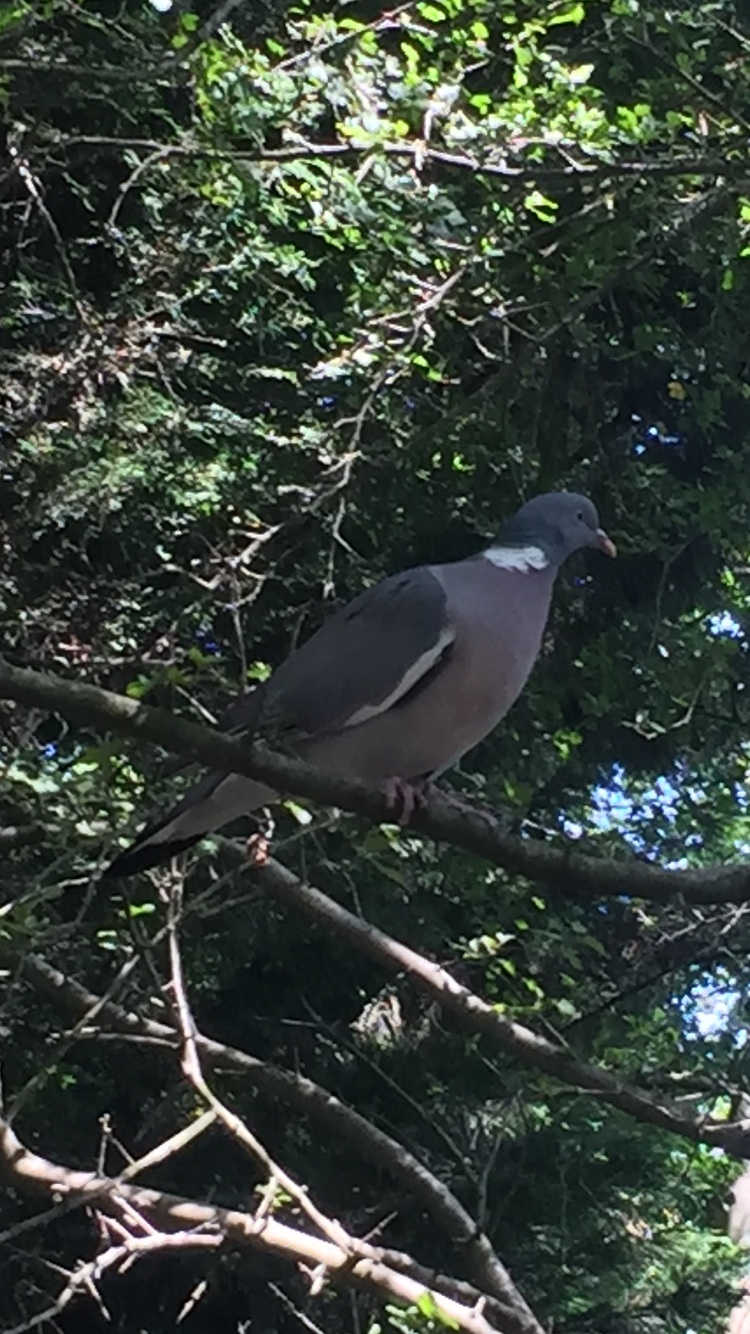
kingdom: Animalia
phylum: Chordata
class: Aves
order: Columbiformes
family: Columbidae
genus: Columba
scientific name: Columba palumbus
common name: Common wood pigeon
